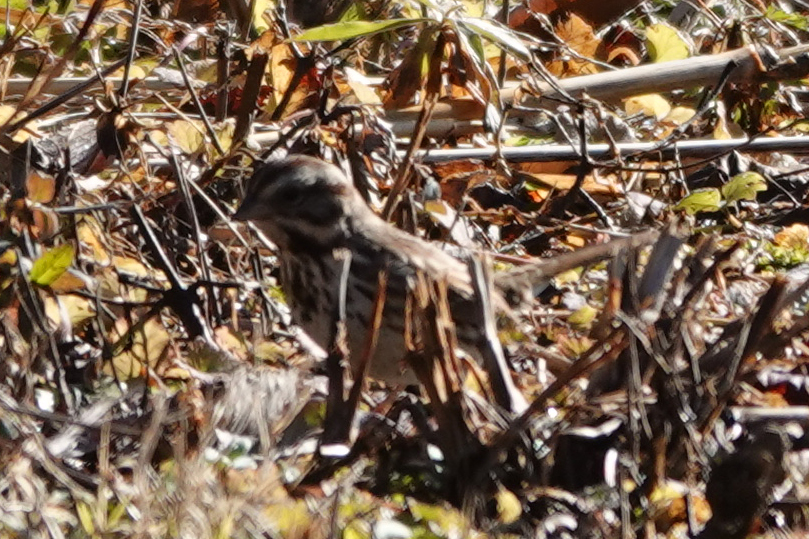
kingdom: Animalia
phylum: Chordata
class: Aves
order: Passeriformes
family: Passerellidae
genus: Melospiza
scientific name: Melospiza melodia
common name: Song sparrow
